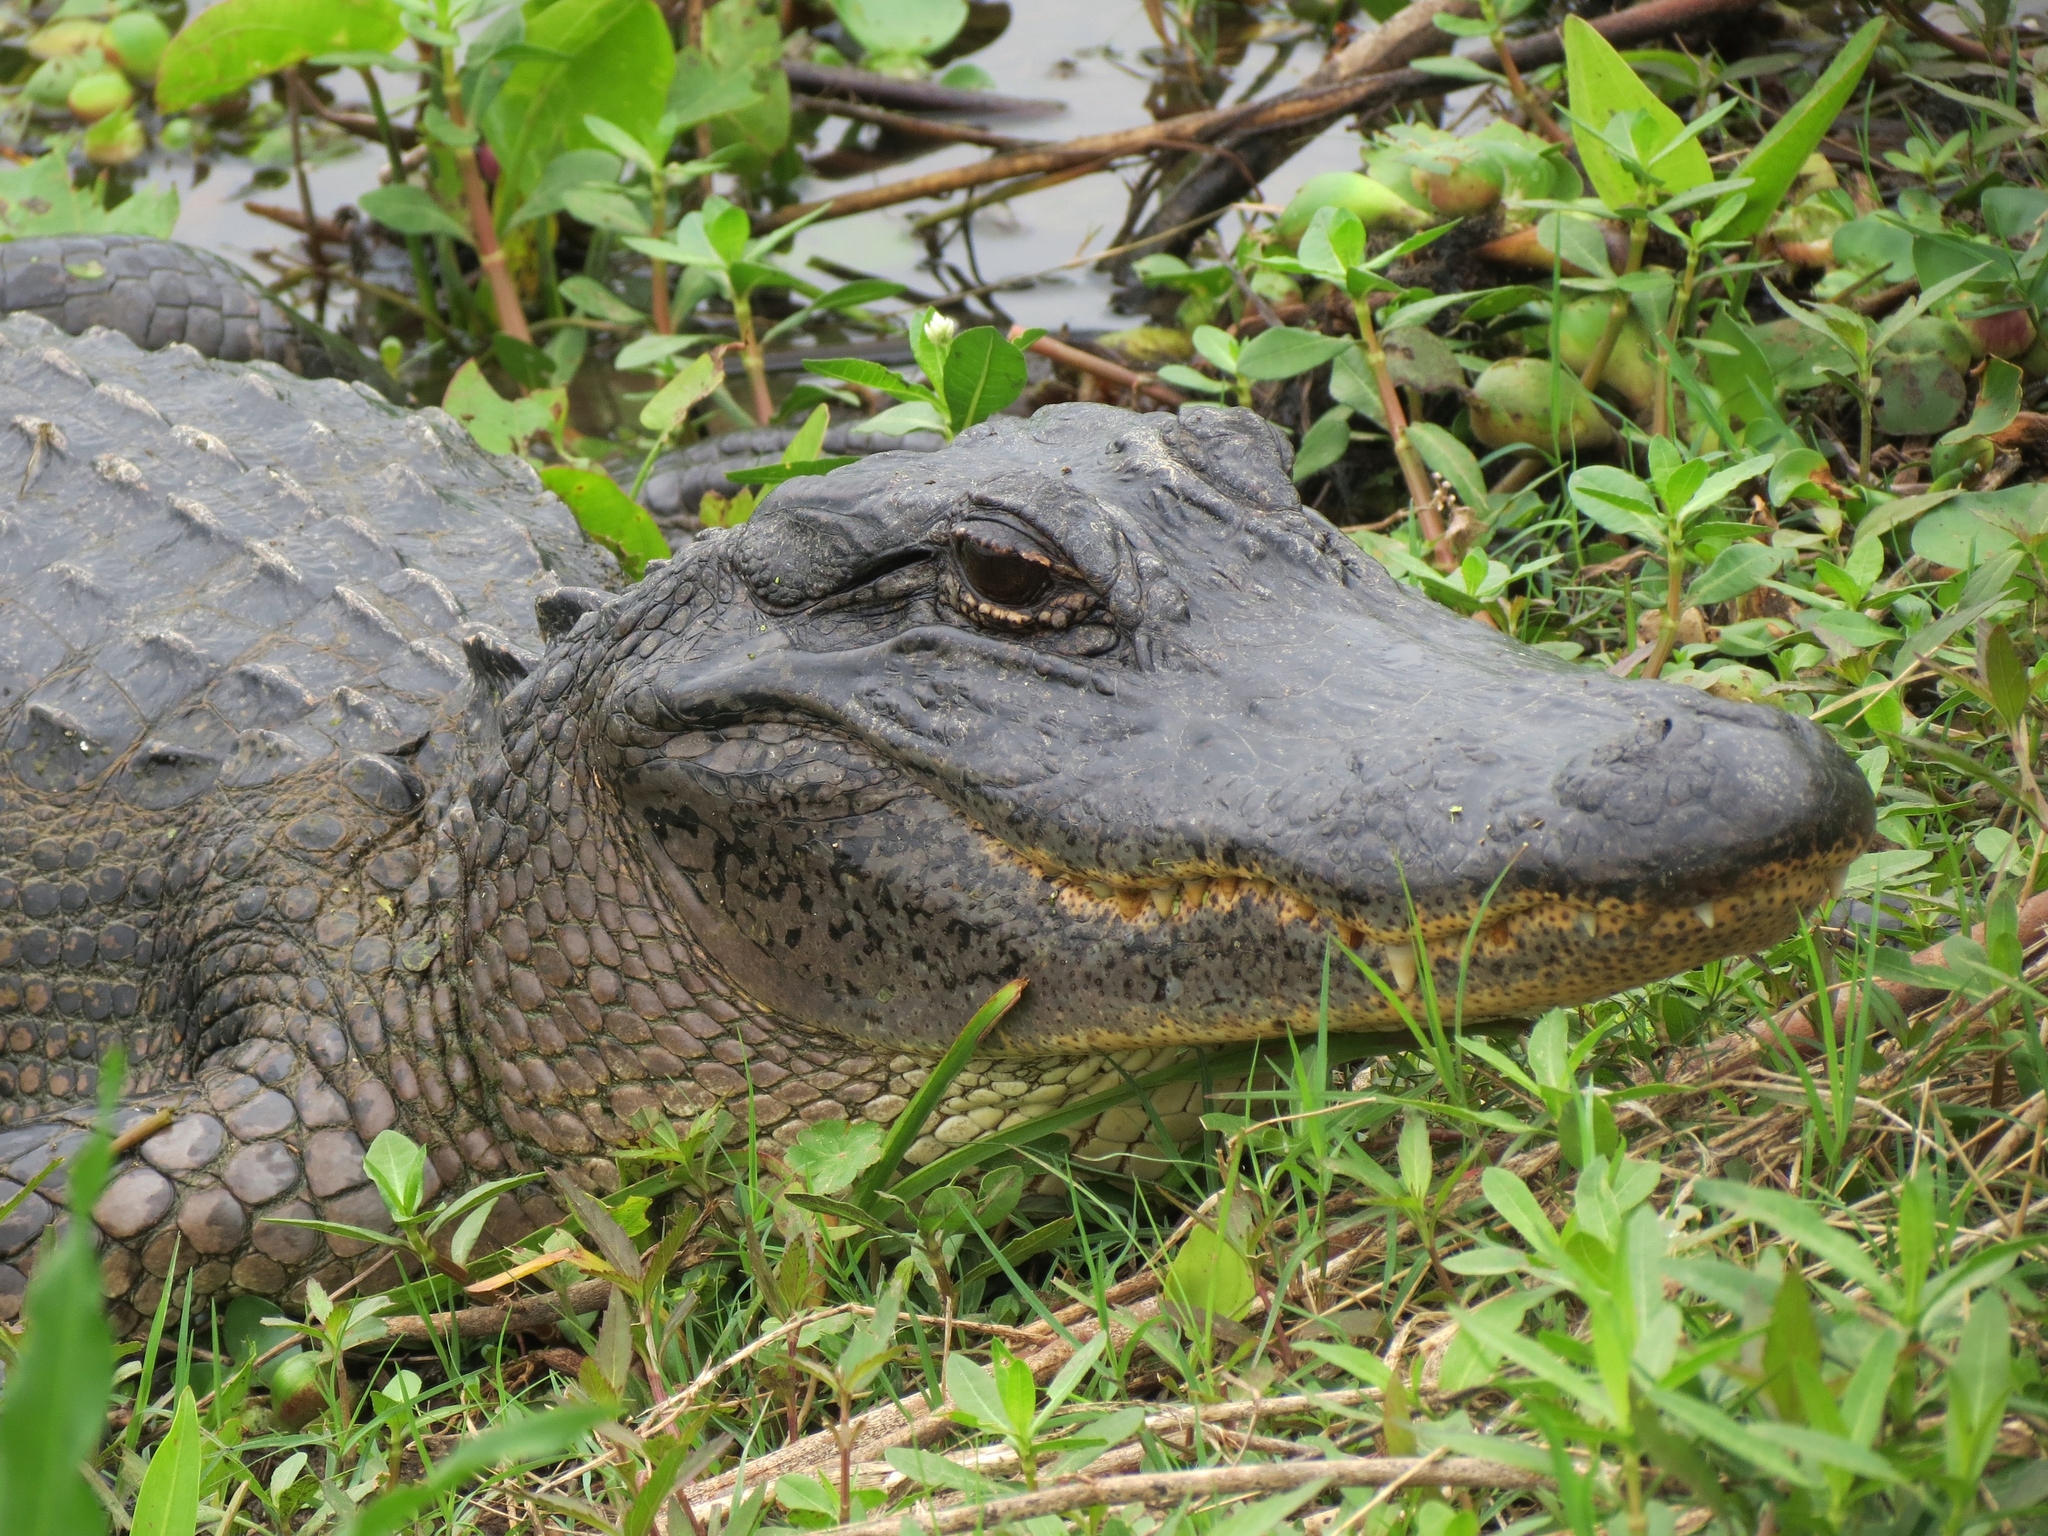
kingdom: Animalia
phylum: Chordata
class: Crocodylia
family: Alligatoridae
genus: Alligator
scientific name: Alligator mississippiensis
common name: American alligator
